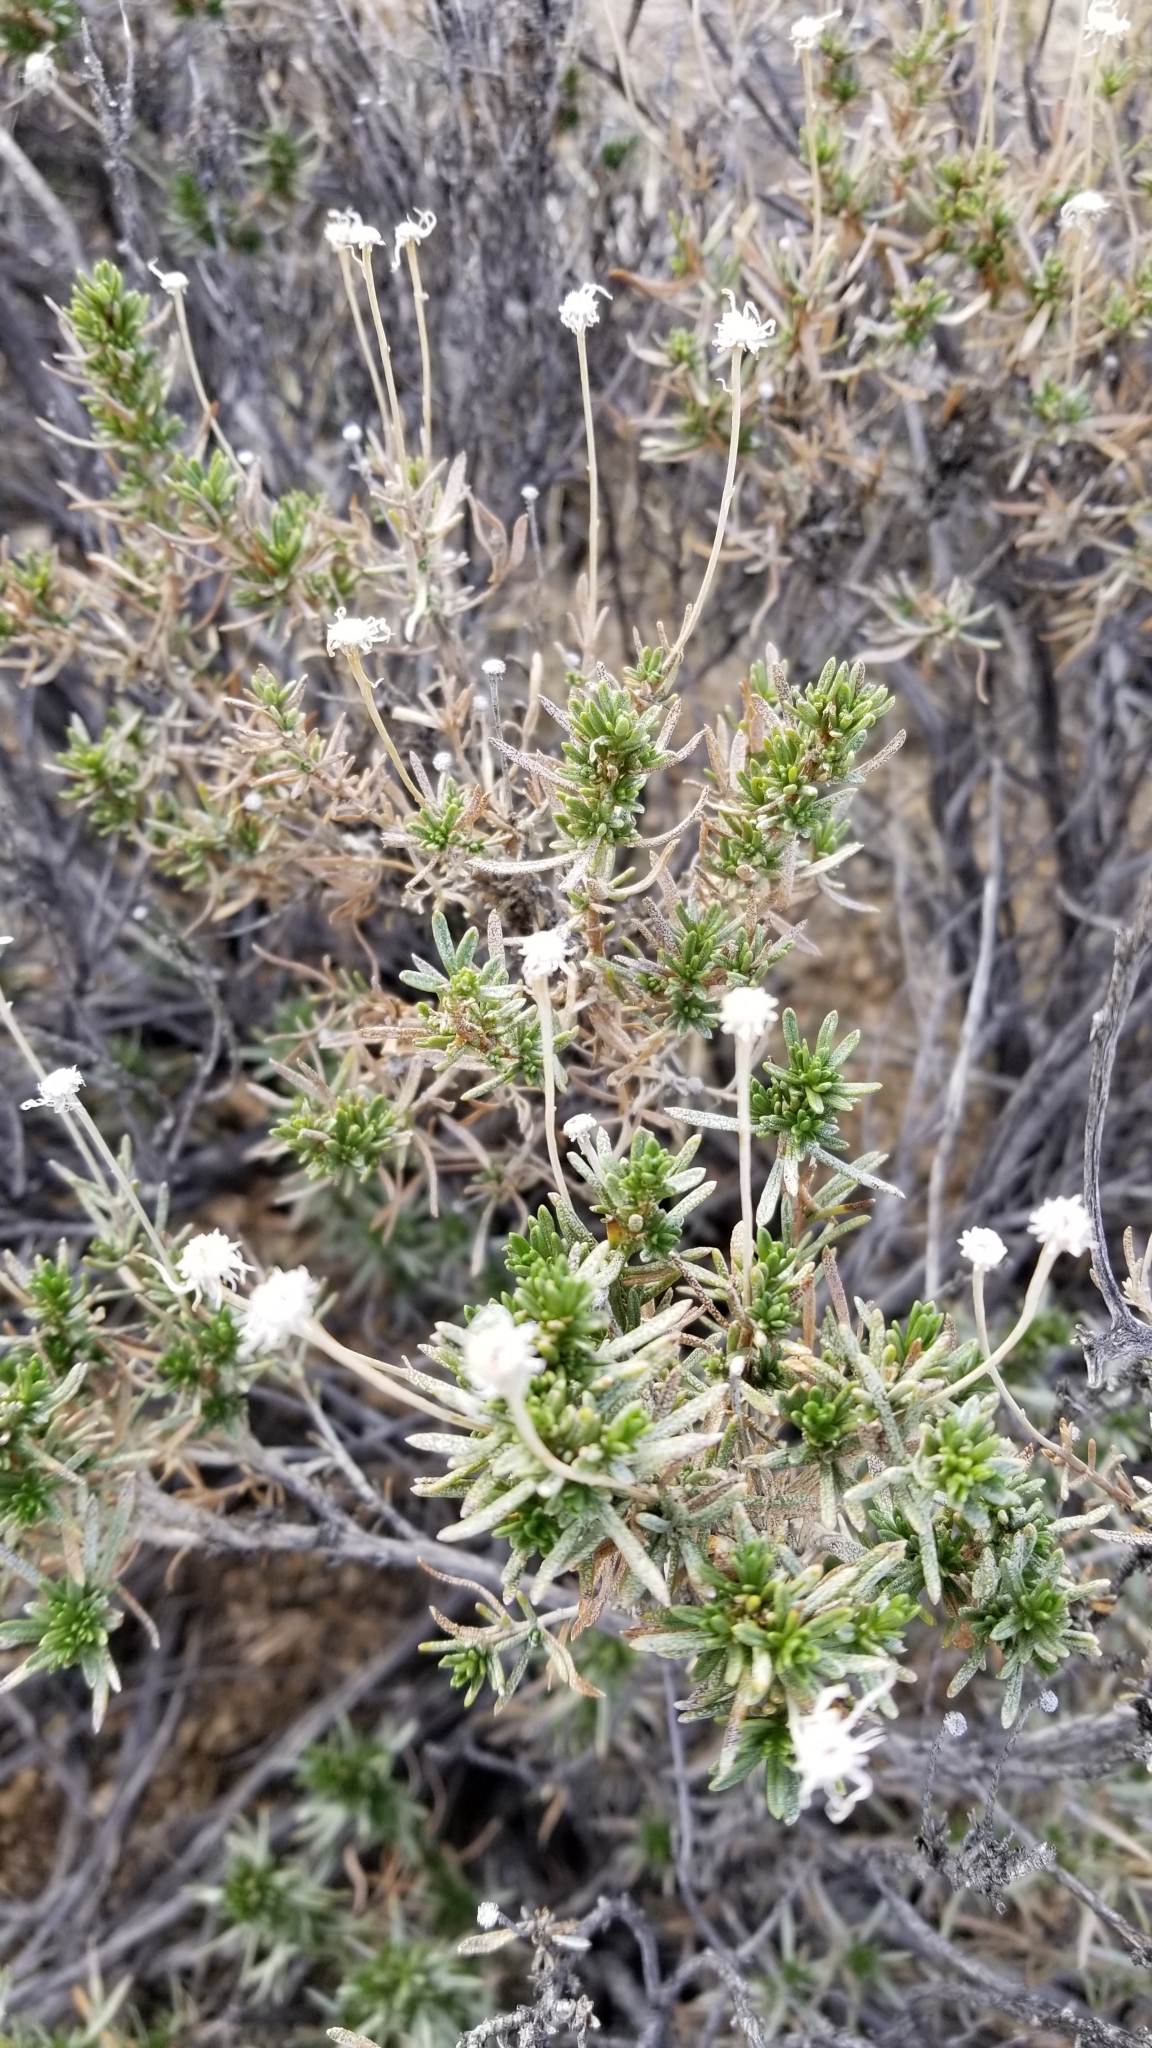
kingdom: Plantae
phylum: Tracheophyta
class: Magnoliopsida
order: Asterales
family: Asteraceae
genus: Ericameria
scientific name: Ericameria linearifolia
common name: Interior goldenbush
